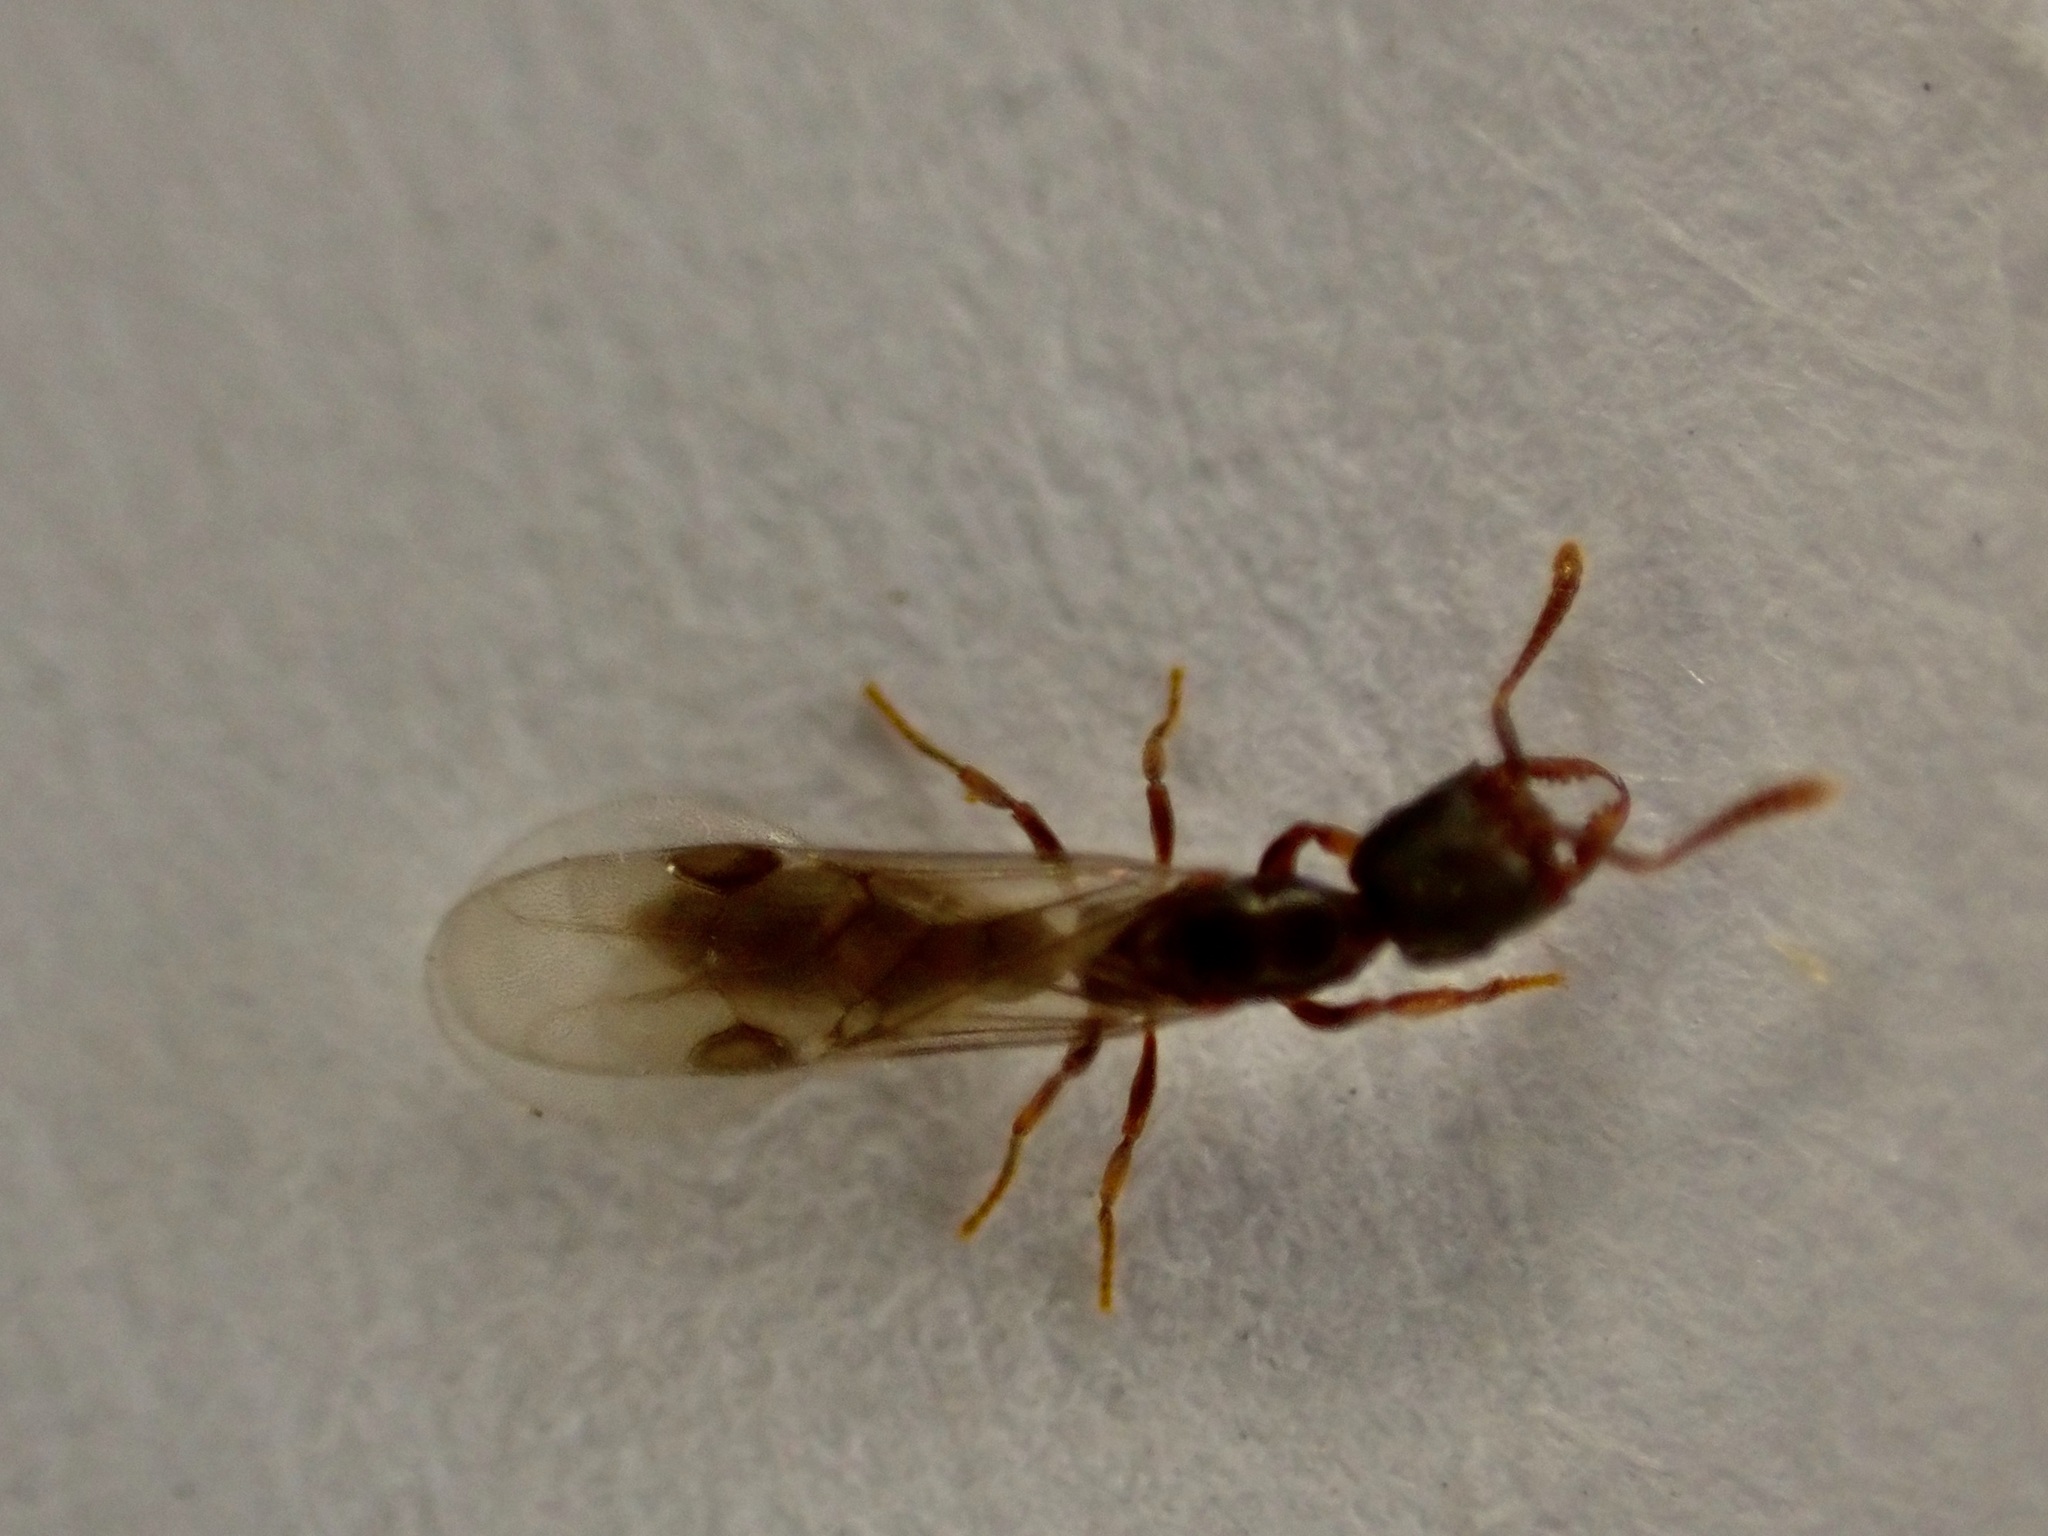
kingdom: Animalia
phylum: Arthropoda
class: Insecta
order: Hymenoptera
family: Formicidae
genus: Fulakora
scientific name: Fulakora
